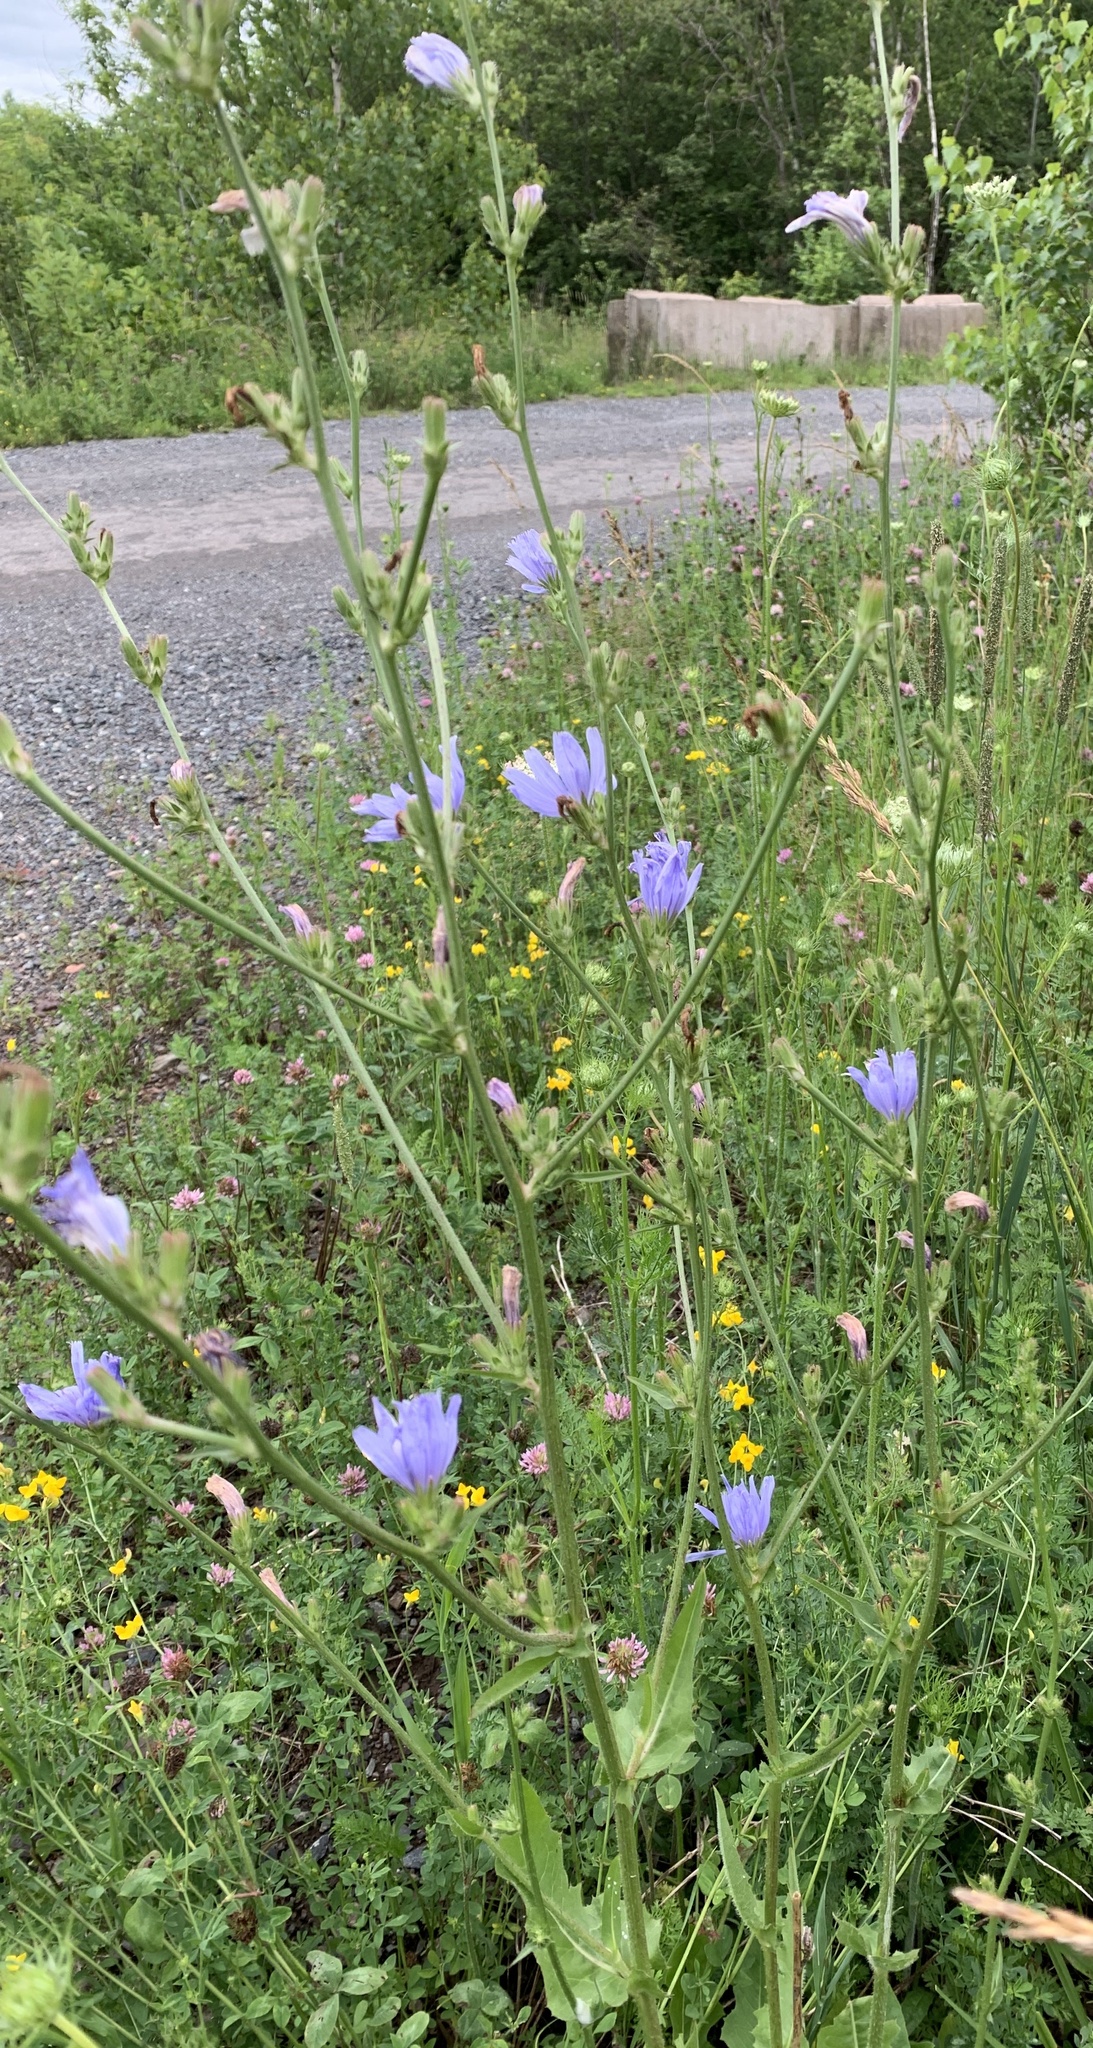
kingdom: Plantae
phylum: Tracheophyta
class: Magnoliopsida
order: Asterales
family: Asteraceae
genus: Cichorium
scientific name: Cichorium intybus
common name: Chicory
